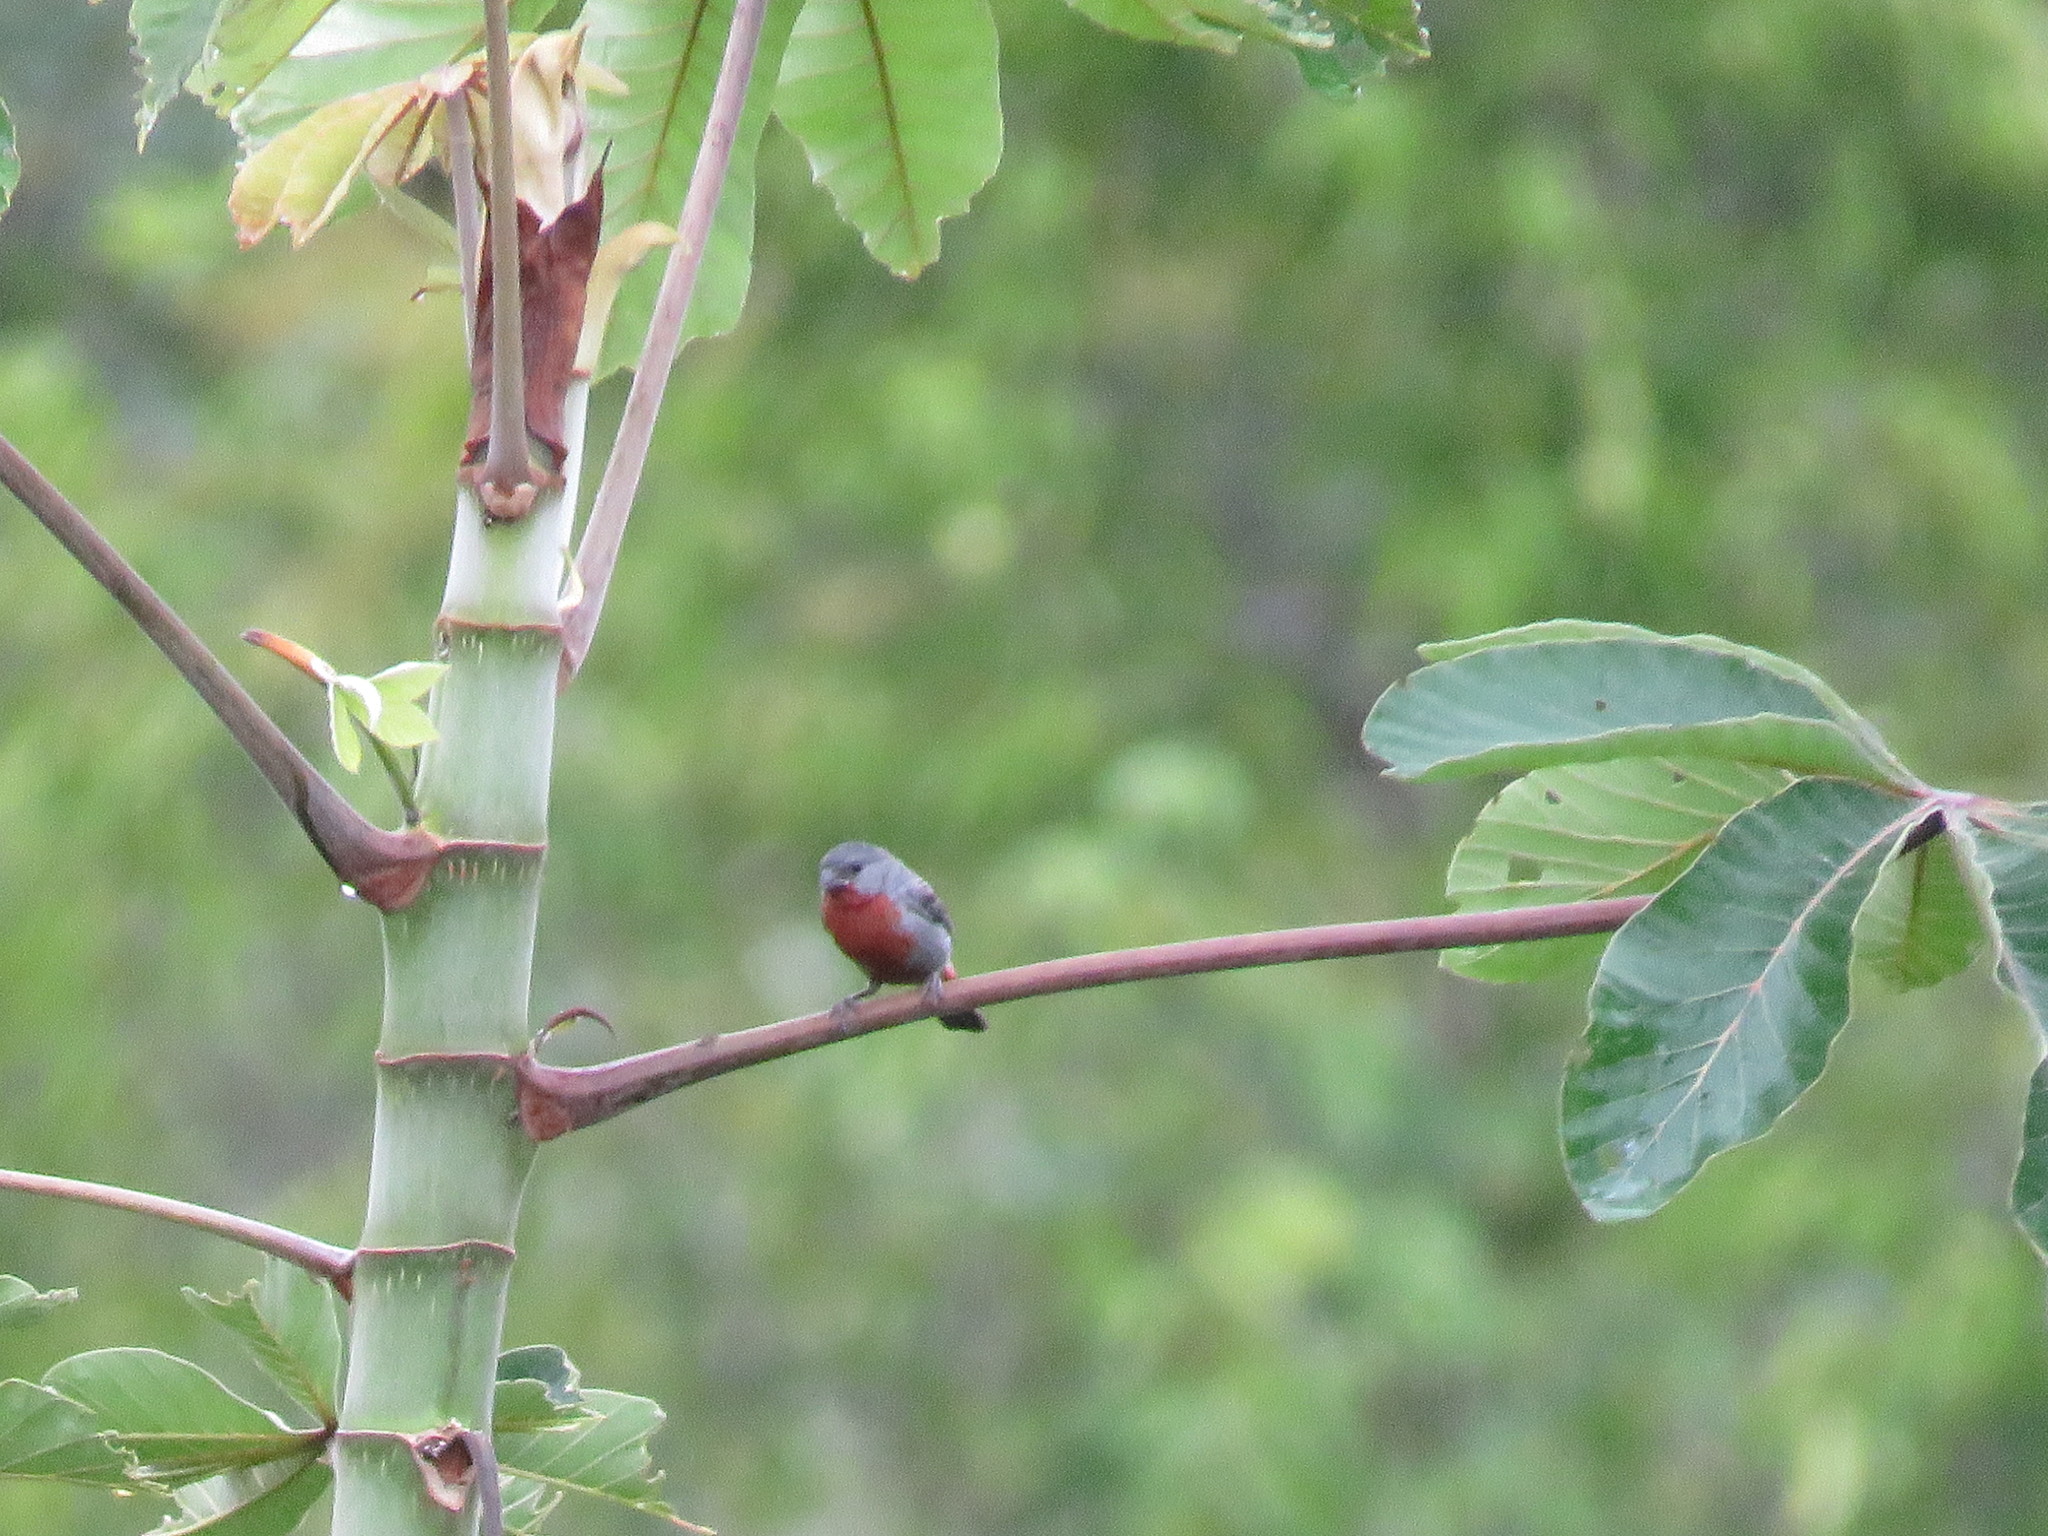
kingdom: Animalia
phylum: Chordata
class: Aves
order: Passeriformes
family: Thraupidae
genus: Sporophila
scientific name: Sporophila castaneiventris
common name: Chestnut-bellied seedeater
